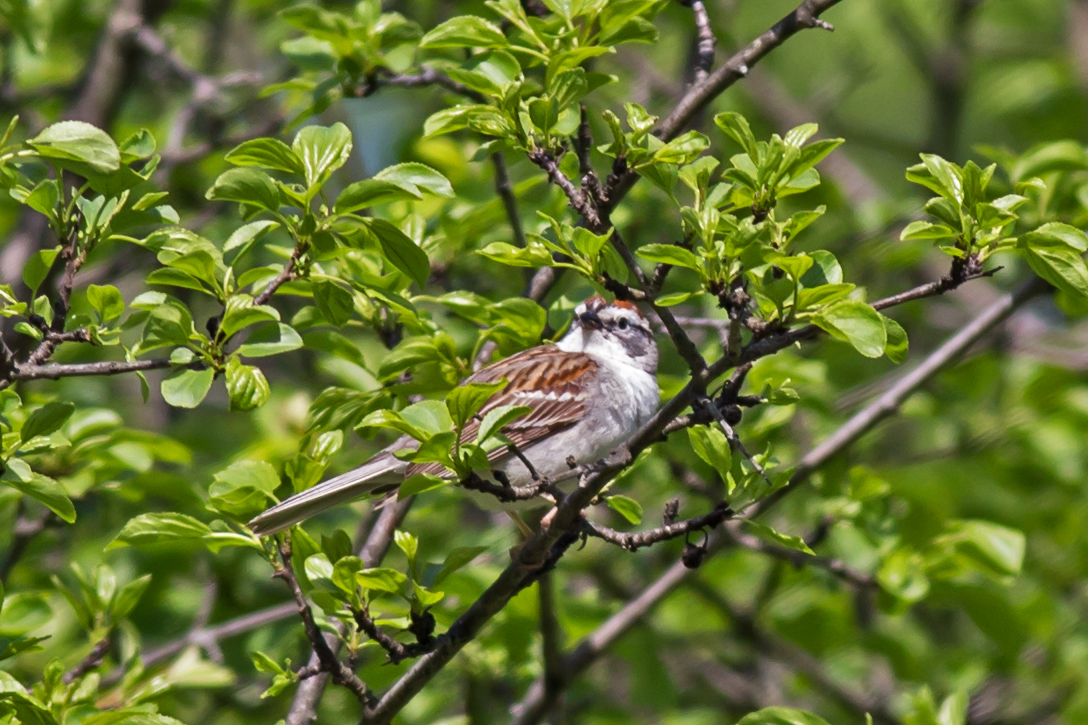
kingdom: Animalia
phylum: Chordata
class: Aves
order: Passeriformes
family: Passerellidae
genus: Spizella
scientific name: Spizella passerina
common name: Chipping sparrow
